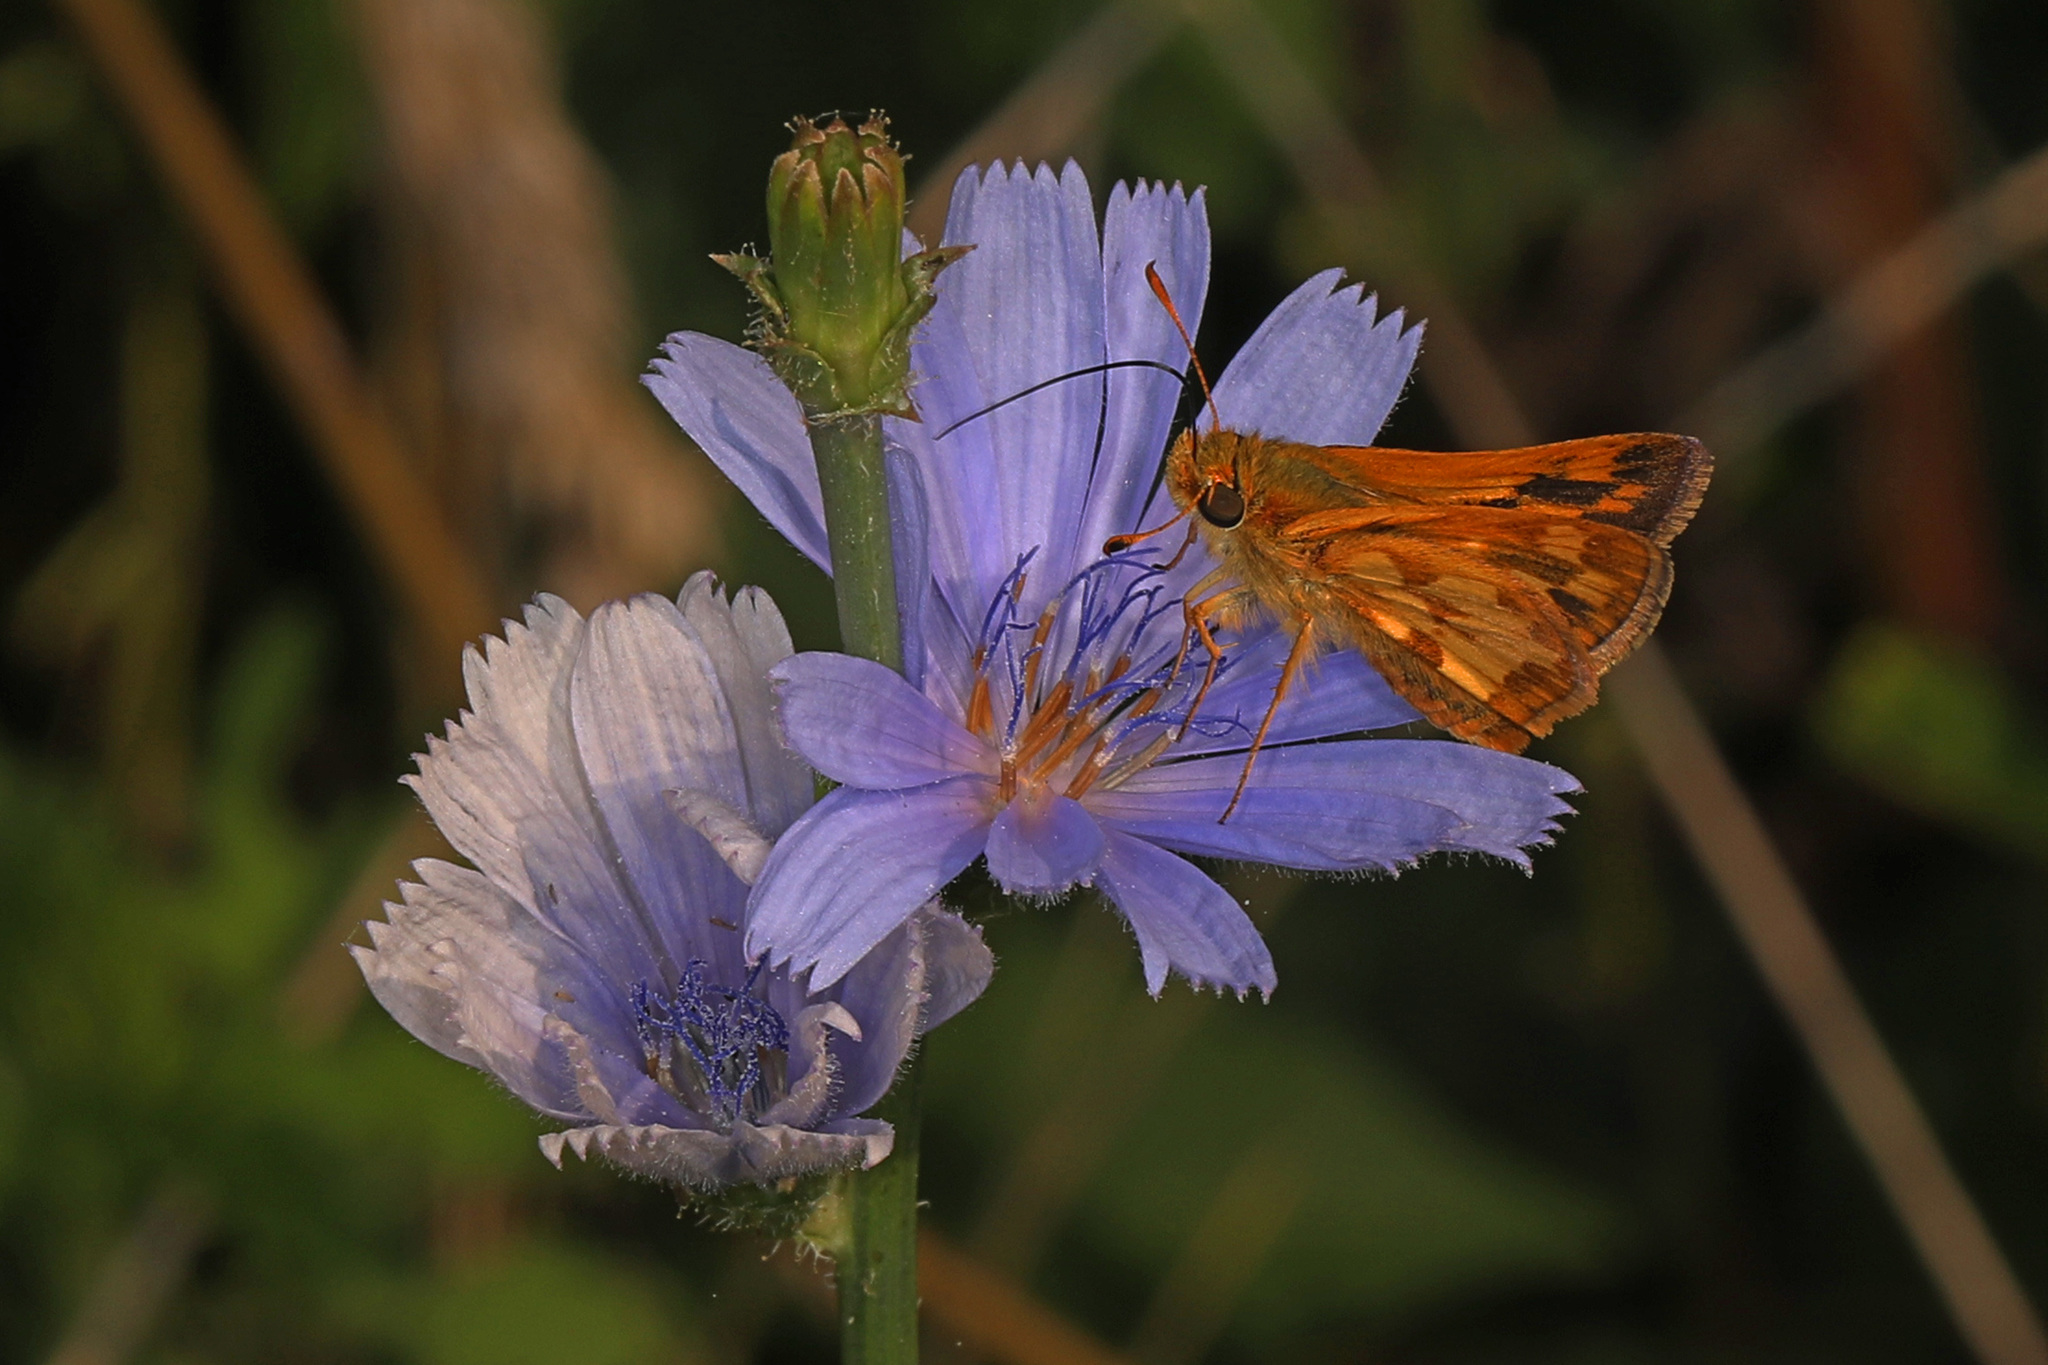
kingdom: Animalia
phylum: Arthropoda
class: Insecta
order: Lepidoptera
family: Hesperiidae
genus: Polites
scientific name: Polites coras
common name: Peck's skipper
